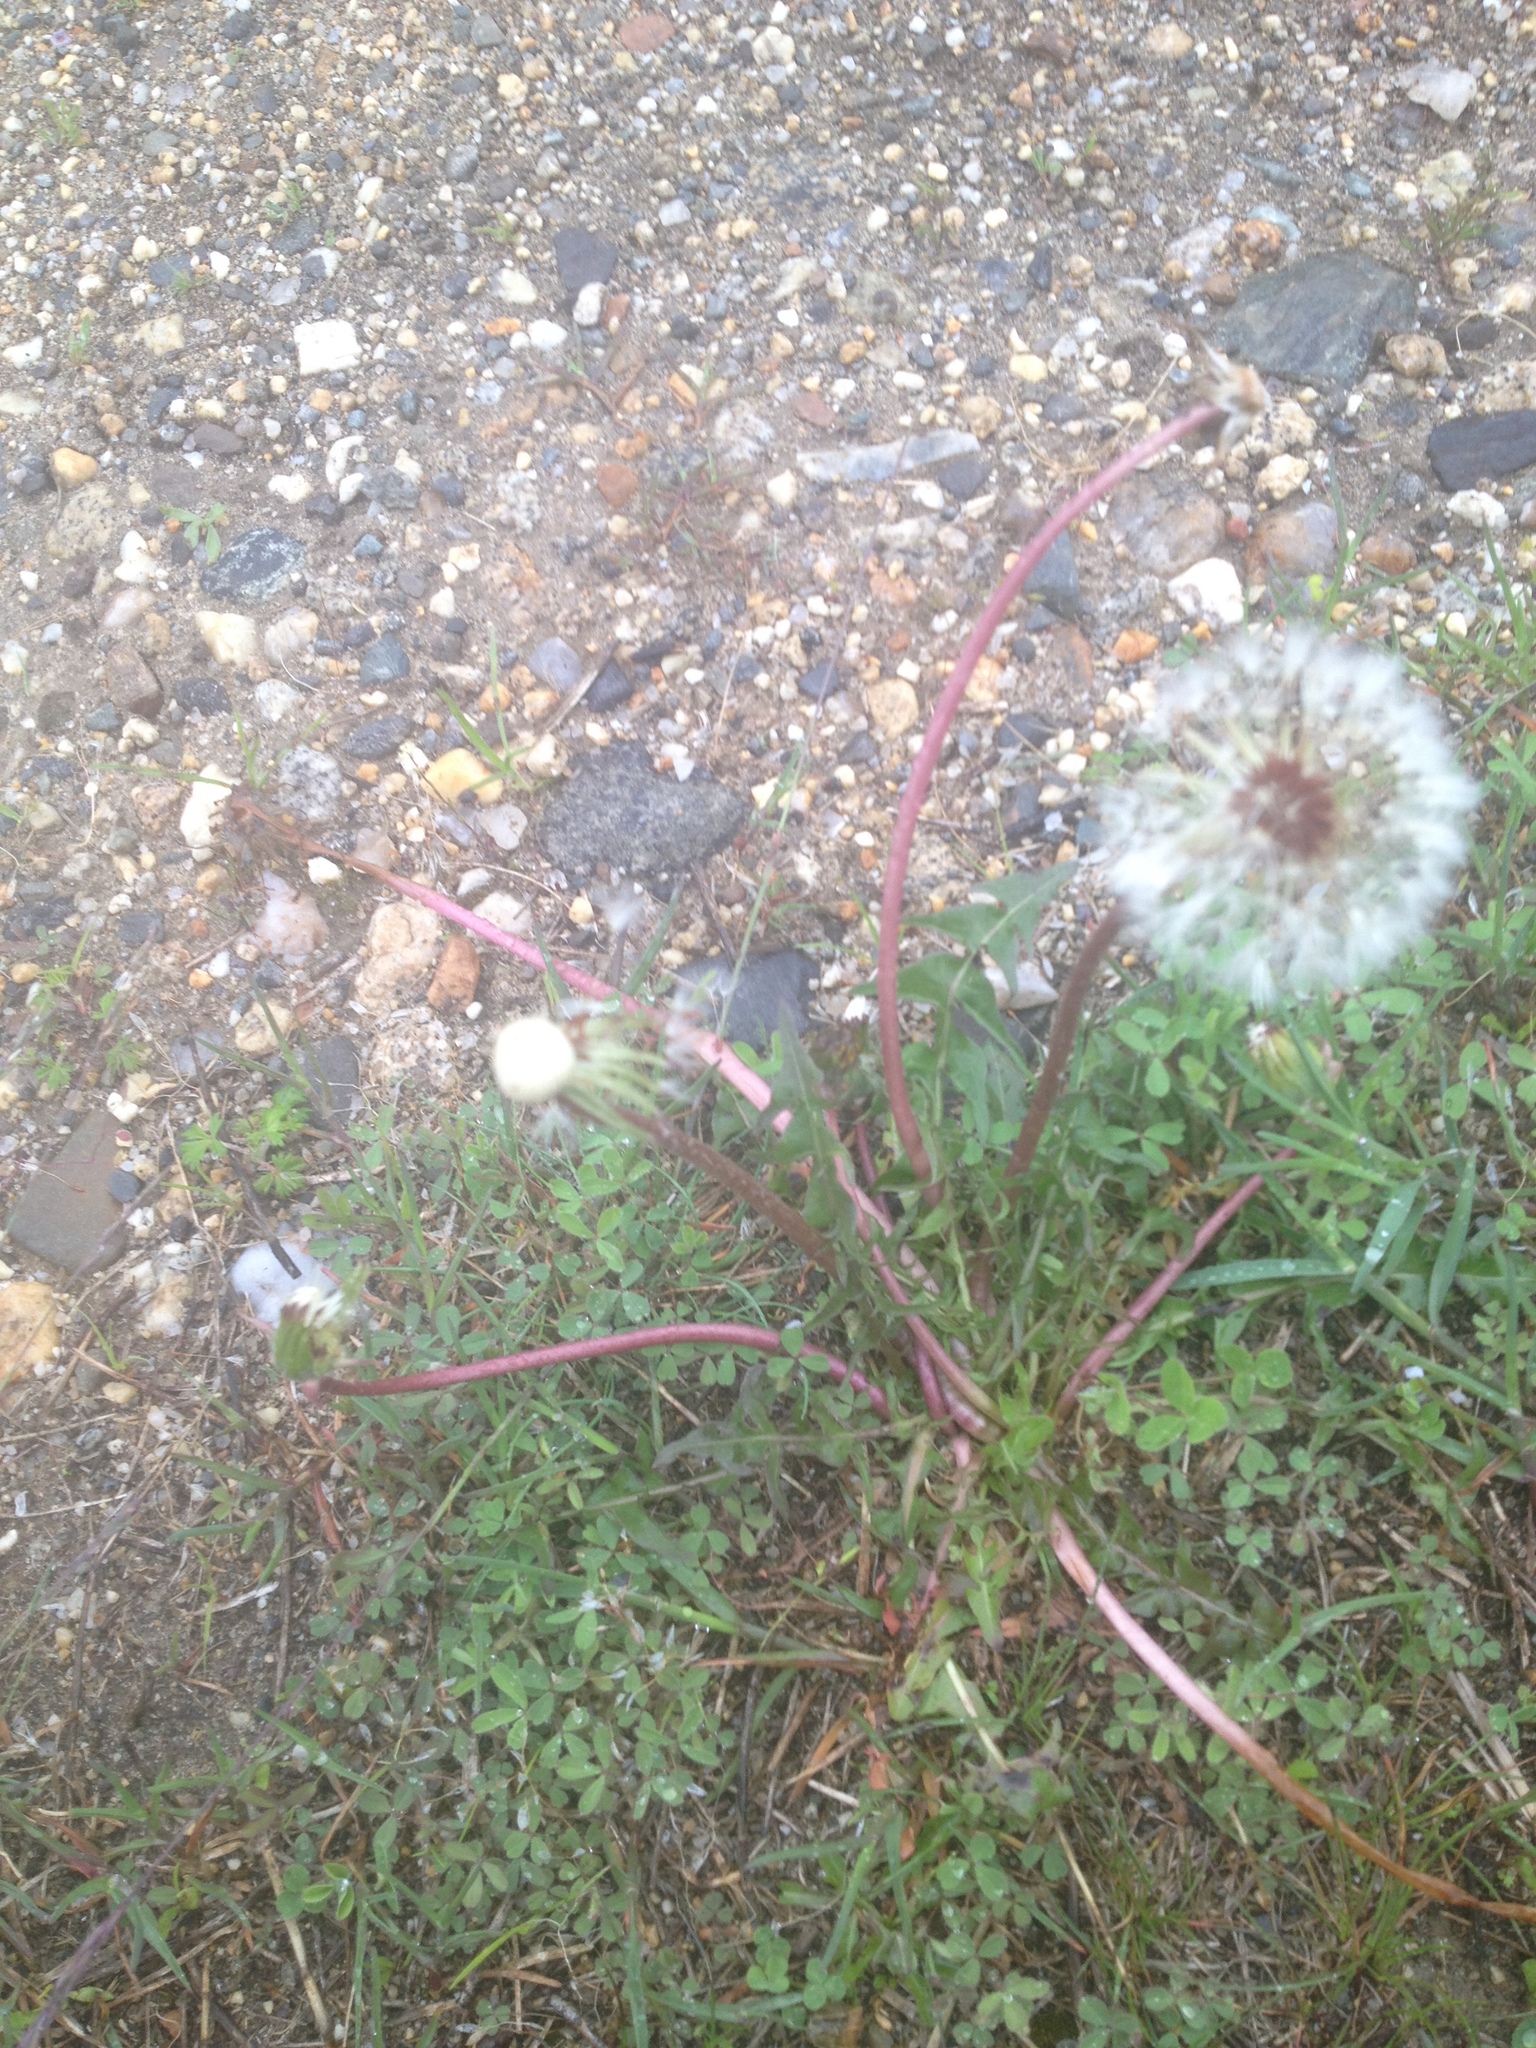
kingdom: Plantae
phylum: Tracheophyta
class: Magnoliopsida
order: Asterales
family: Asteraceae
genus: Taraxacum
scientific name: Taraxacum erythrospermum
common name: Rock dandelion
